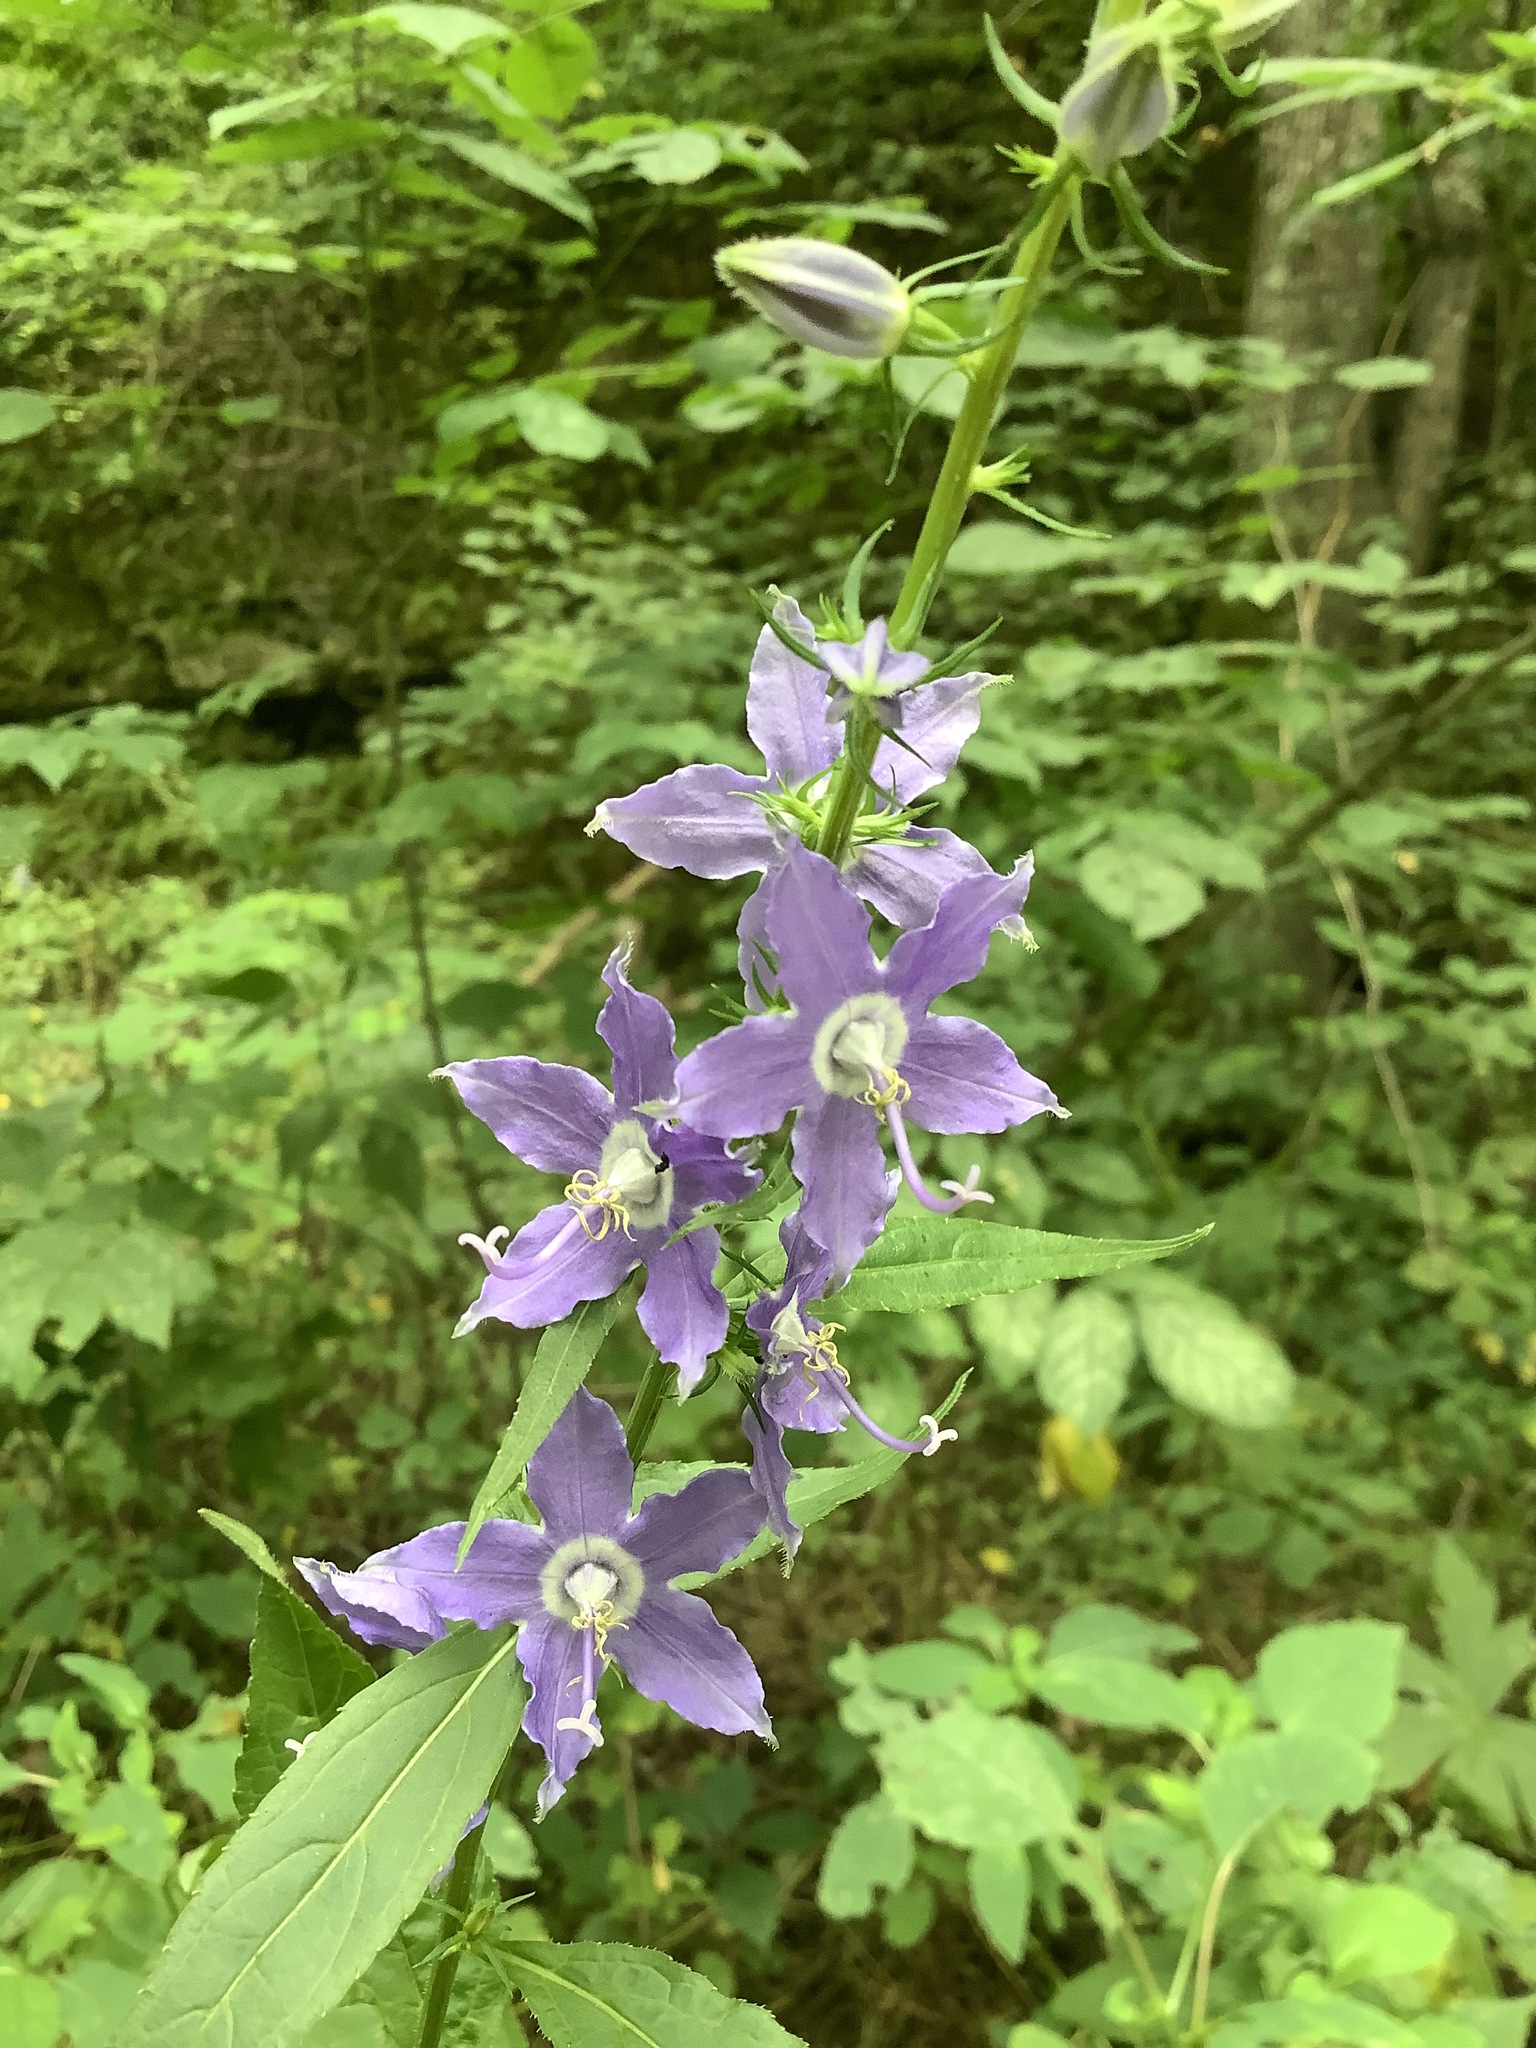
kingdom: Plantae
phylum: Tracheophyta
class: Magnoliopsida
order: Asterales
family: Campanulaceae
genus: Campanulastrum
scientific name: Campanulastrum americanum
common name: American bellflower
